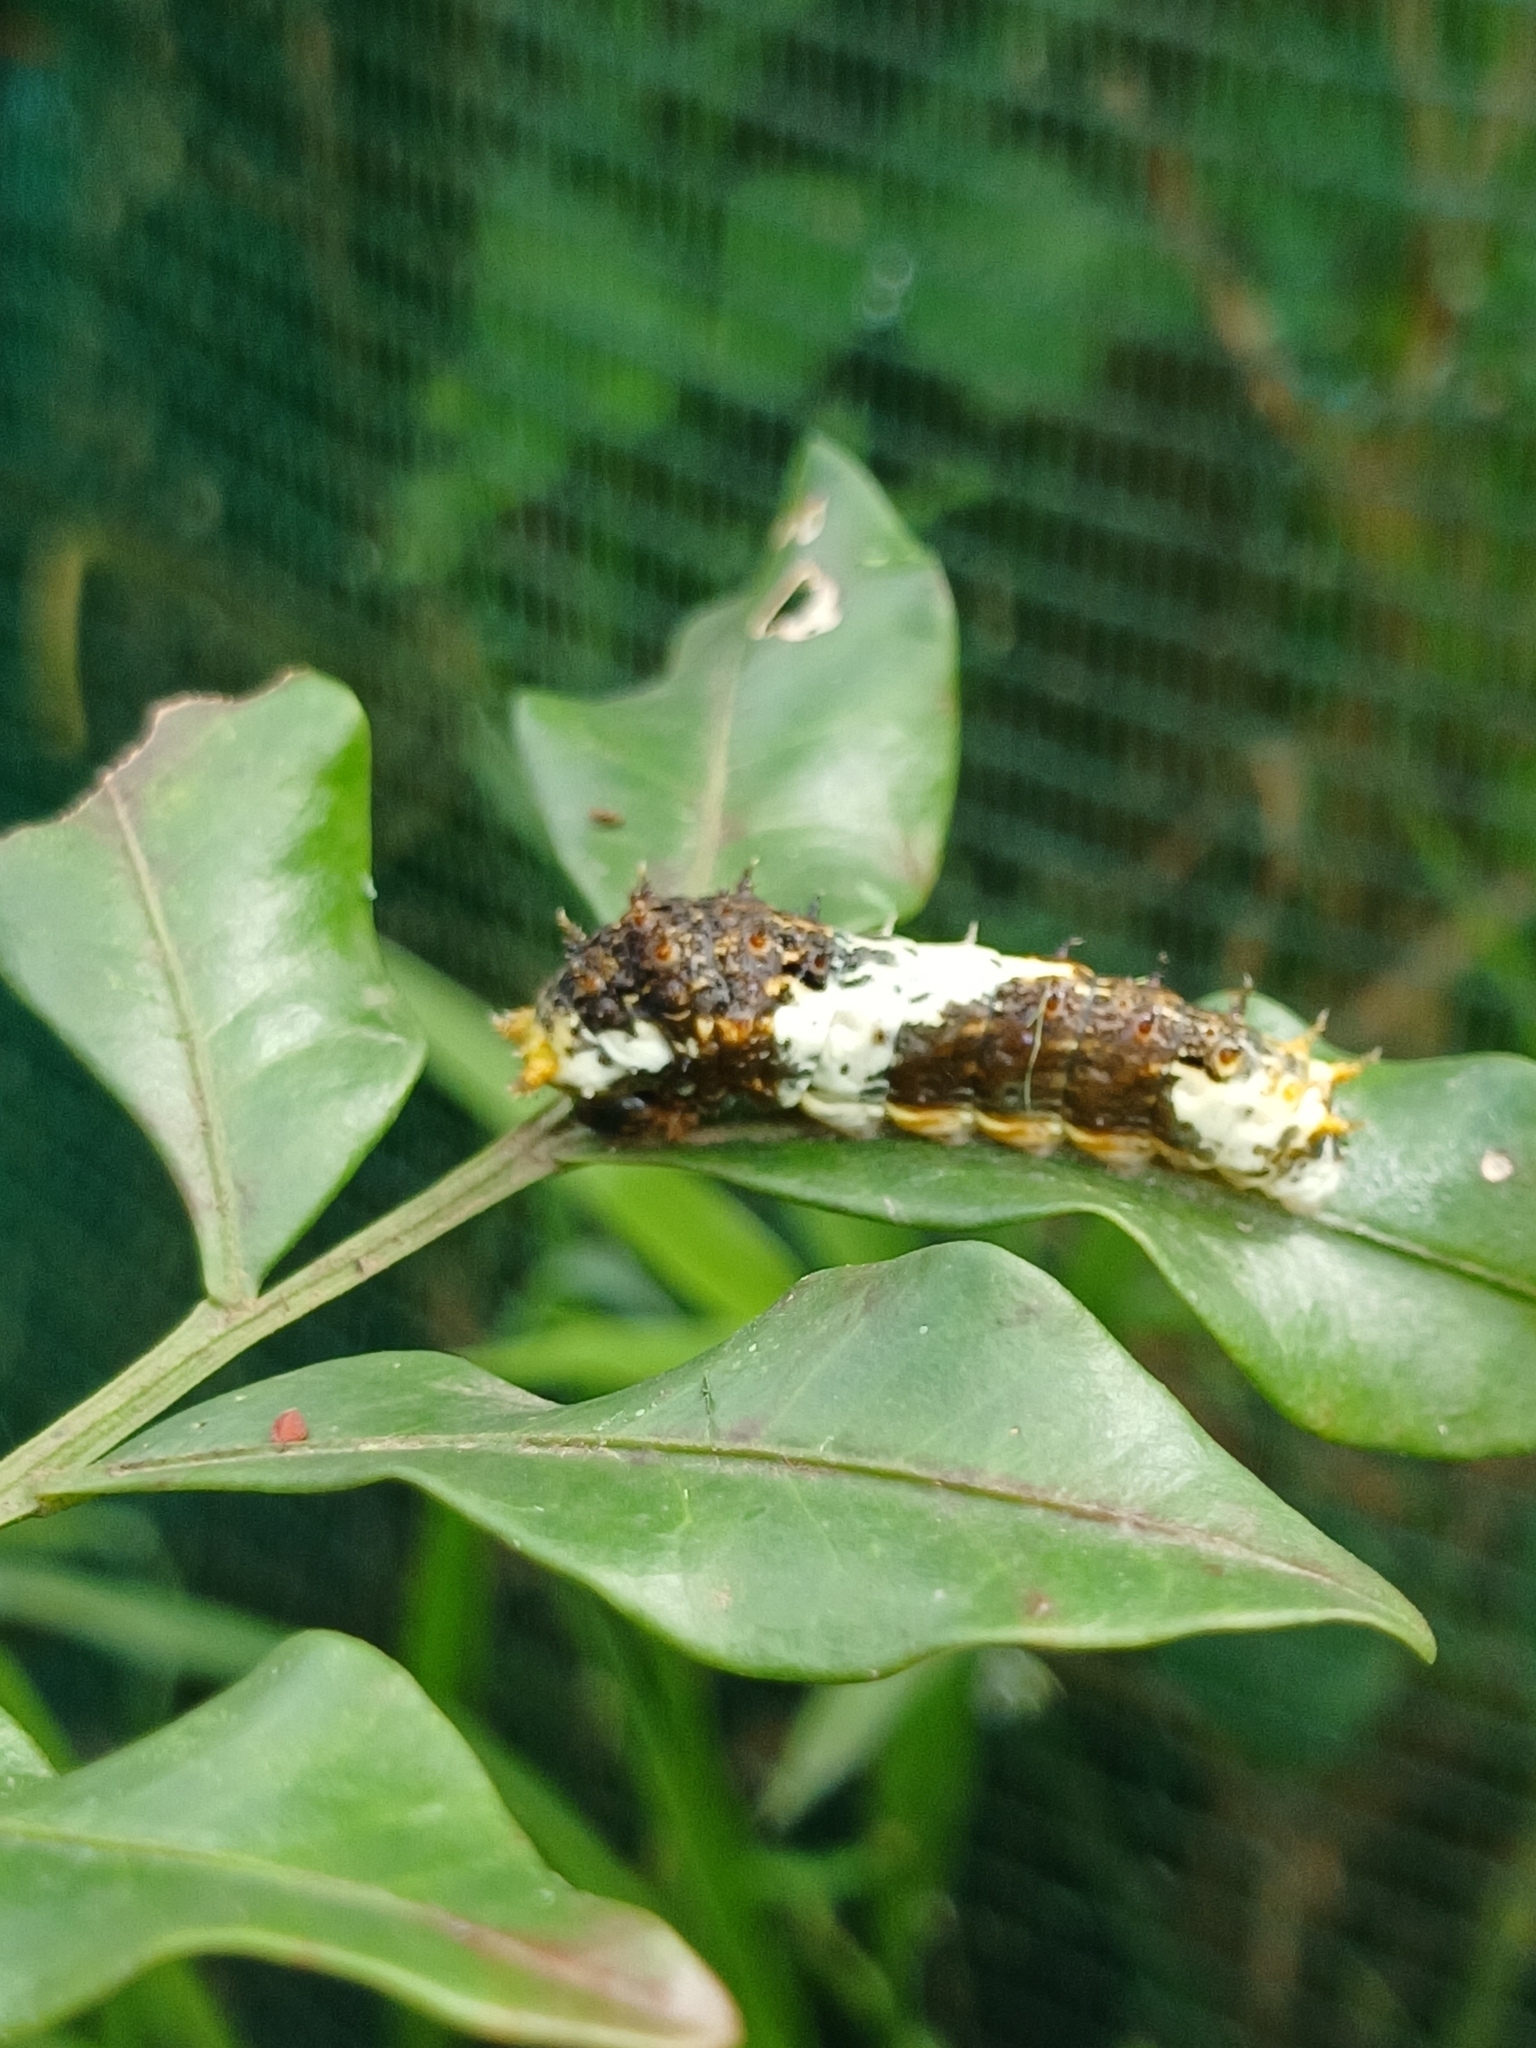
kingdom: Animalia
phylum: Arthropoda
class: Insecta
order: Lepidoptera
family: Papilionidae
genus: Papilio
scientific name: Papilio demodocus
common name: Christmas butterfly
